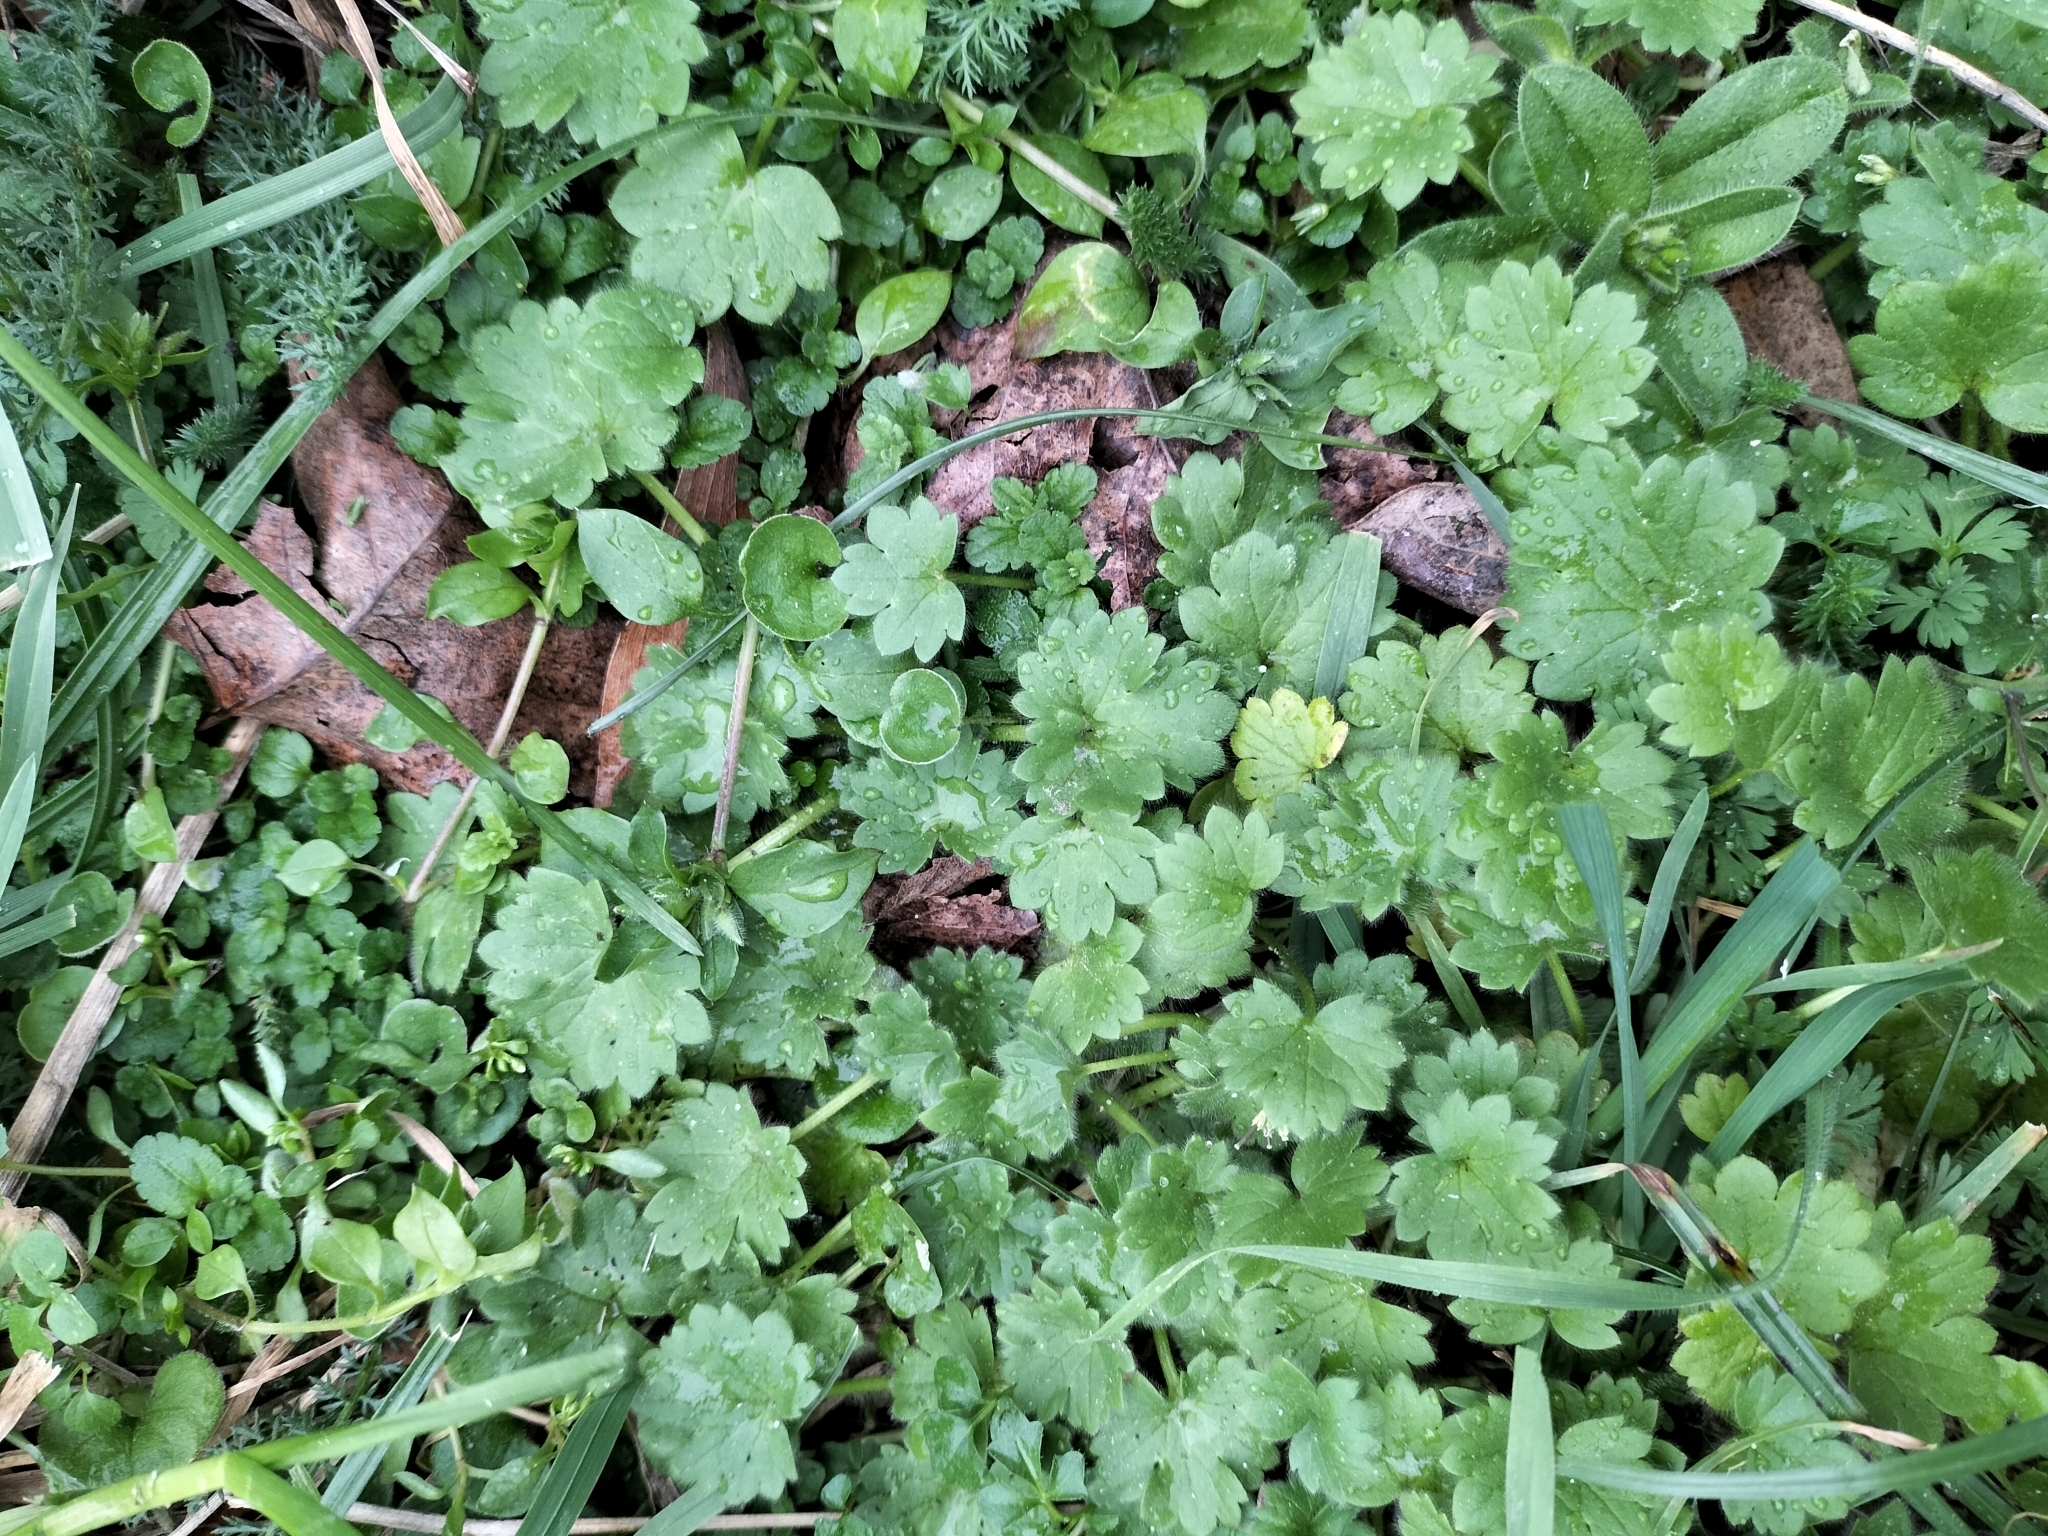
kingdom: Plantae
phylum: Tracheophyta
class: Magnoliopsida
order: Ranunculales
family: Ranunculaceae
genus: Ranunculus
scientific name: Ranunculus parviflorus
